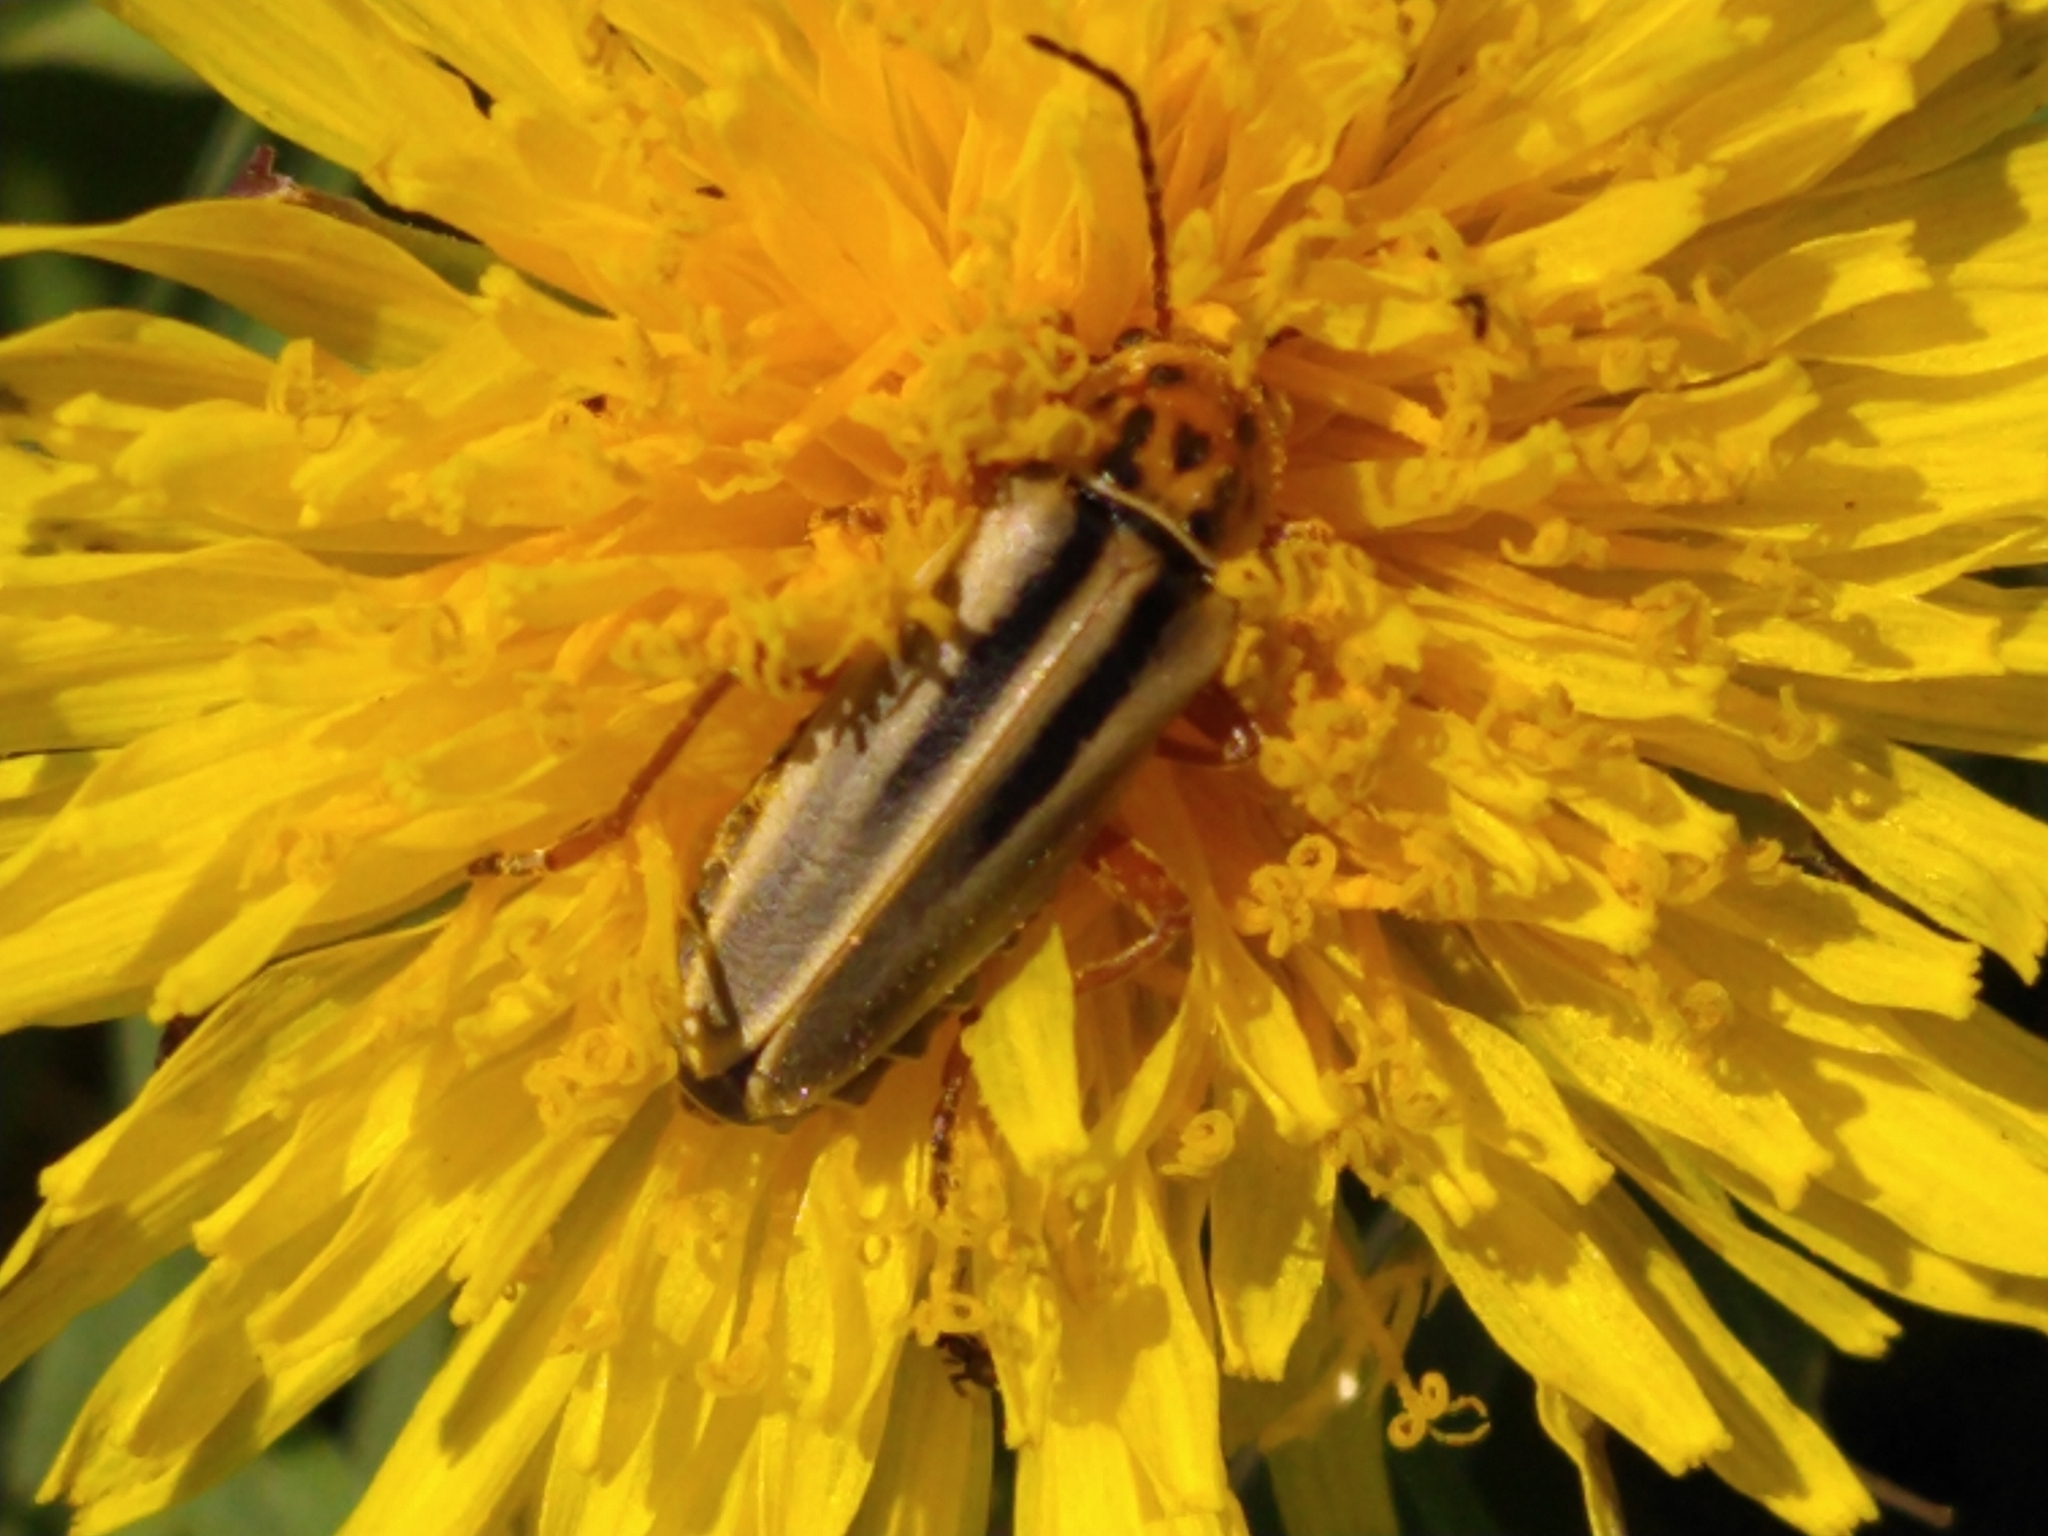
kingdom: Animalia
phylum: Arthropoda
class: Insecta
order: Coleoptera
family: Cantharidae
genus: Chauliognathus
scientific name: Chauliognathus
